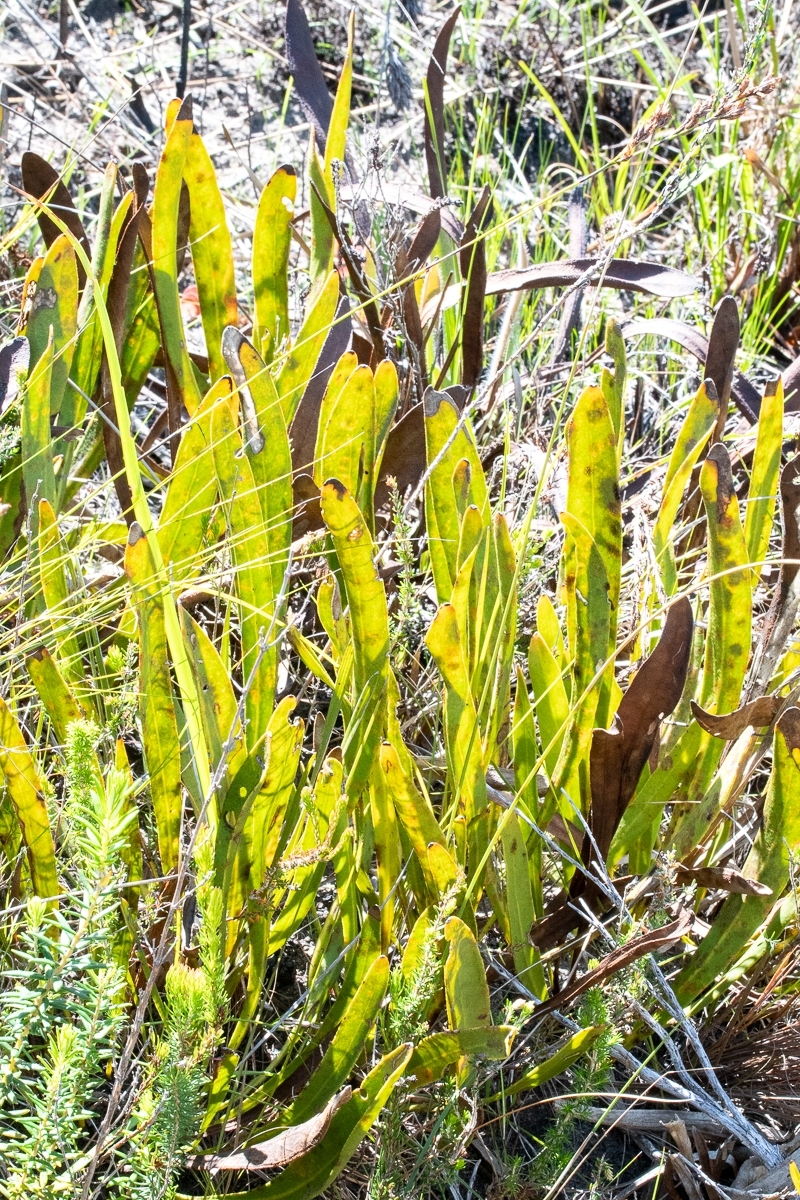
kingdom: Plantae
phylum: Tracheophyta
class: Magnoliopsida
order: Proteales
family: Proteaceae
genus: Protea
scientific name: Protea scabra
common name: Sandpaper-leaf sugarbush
